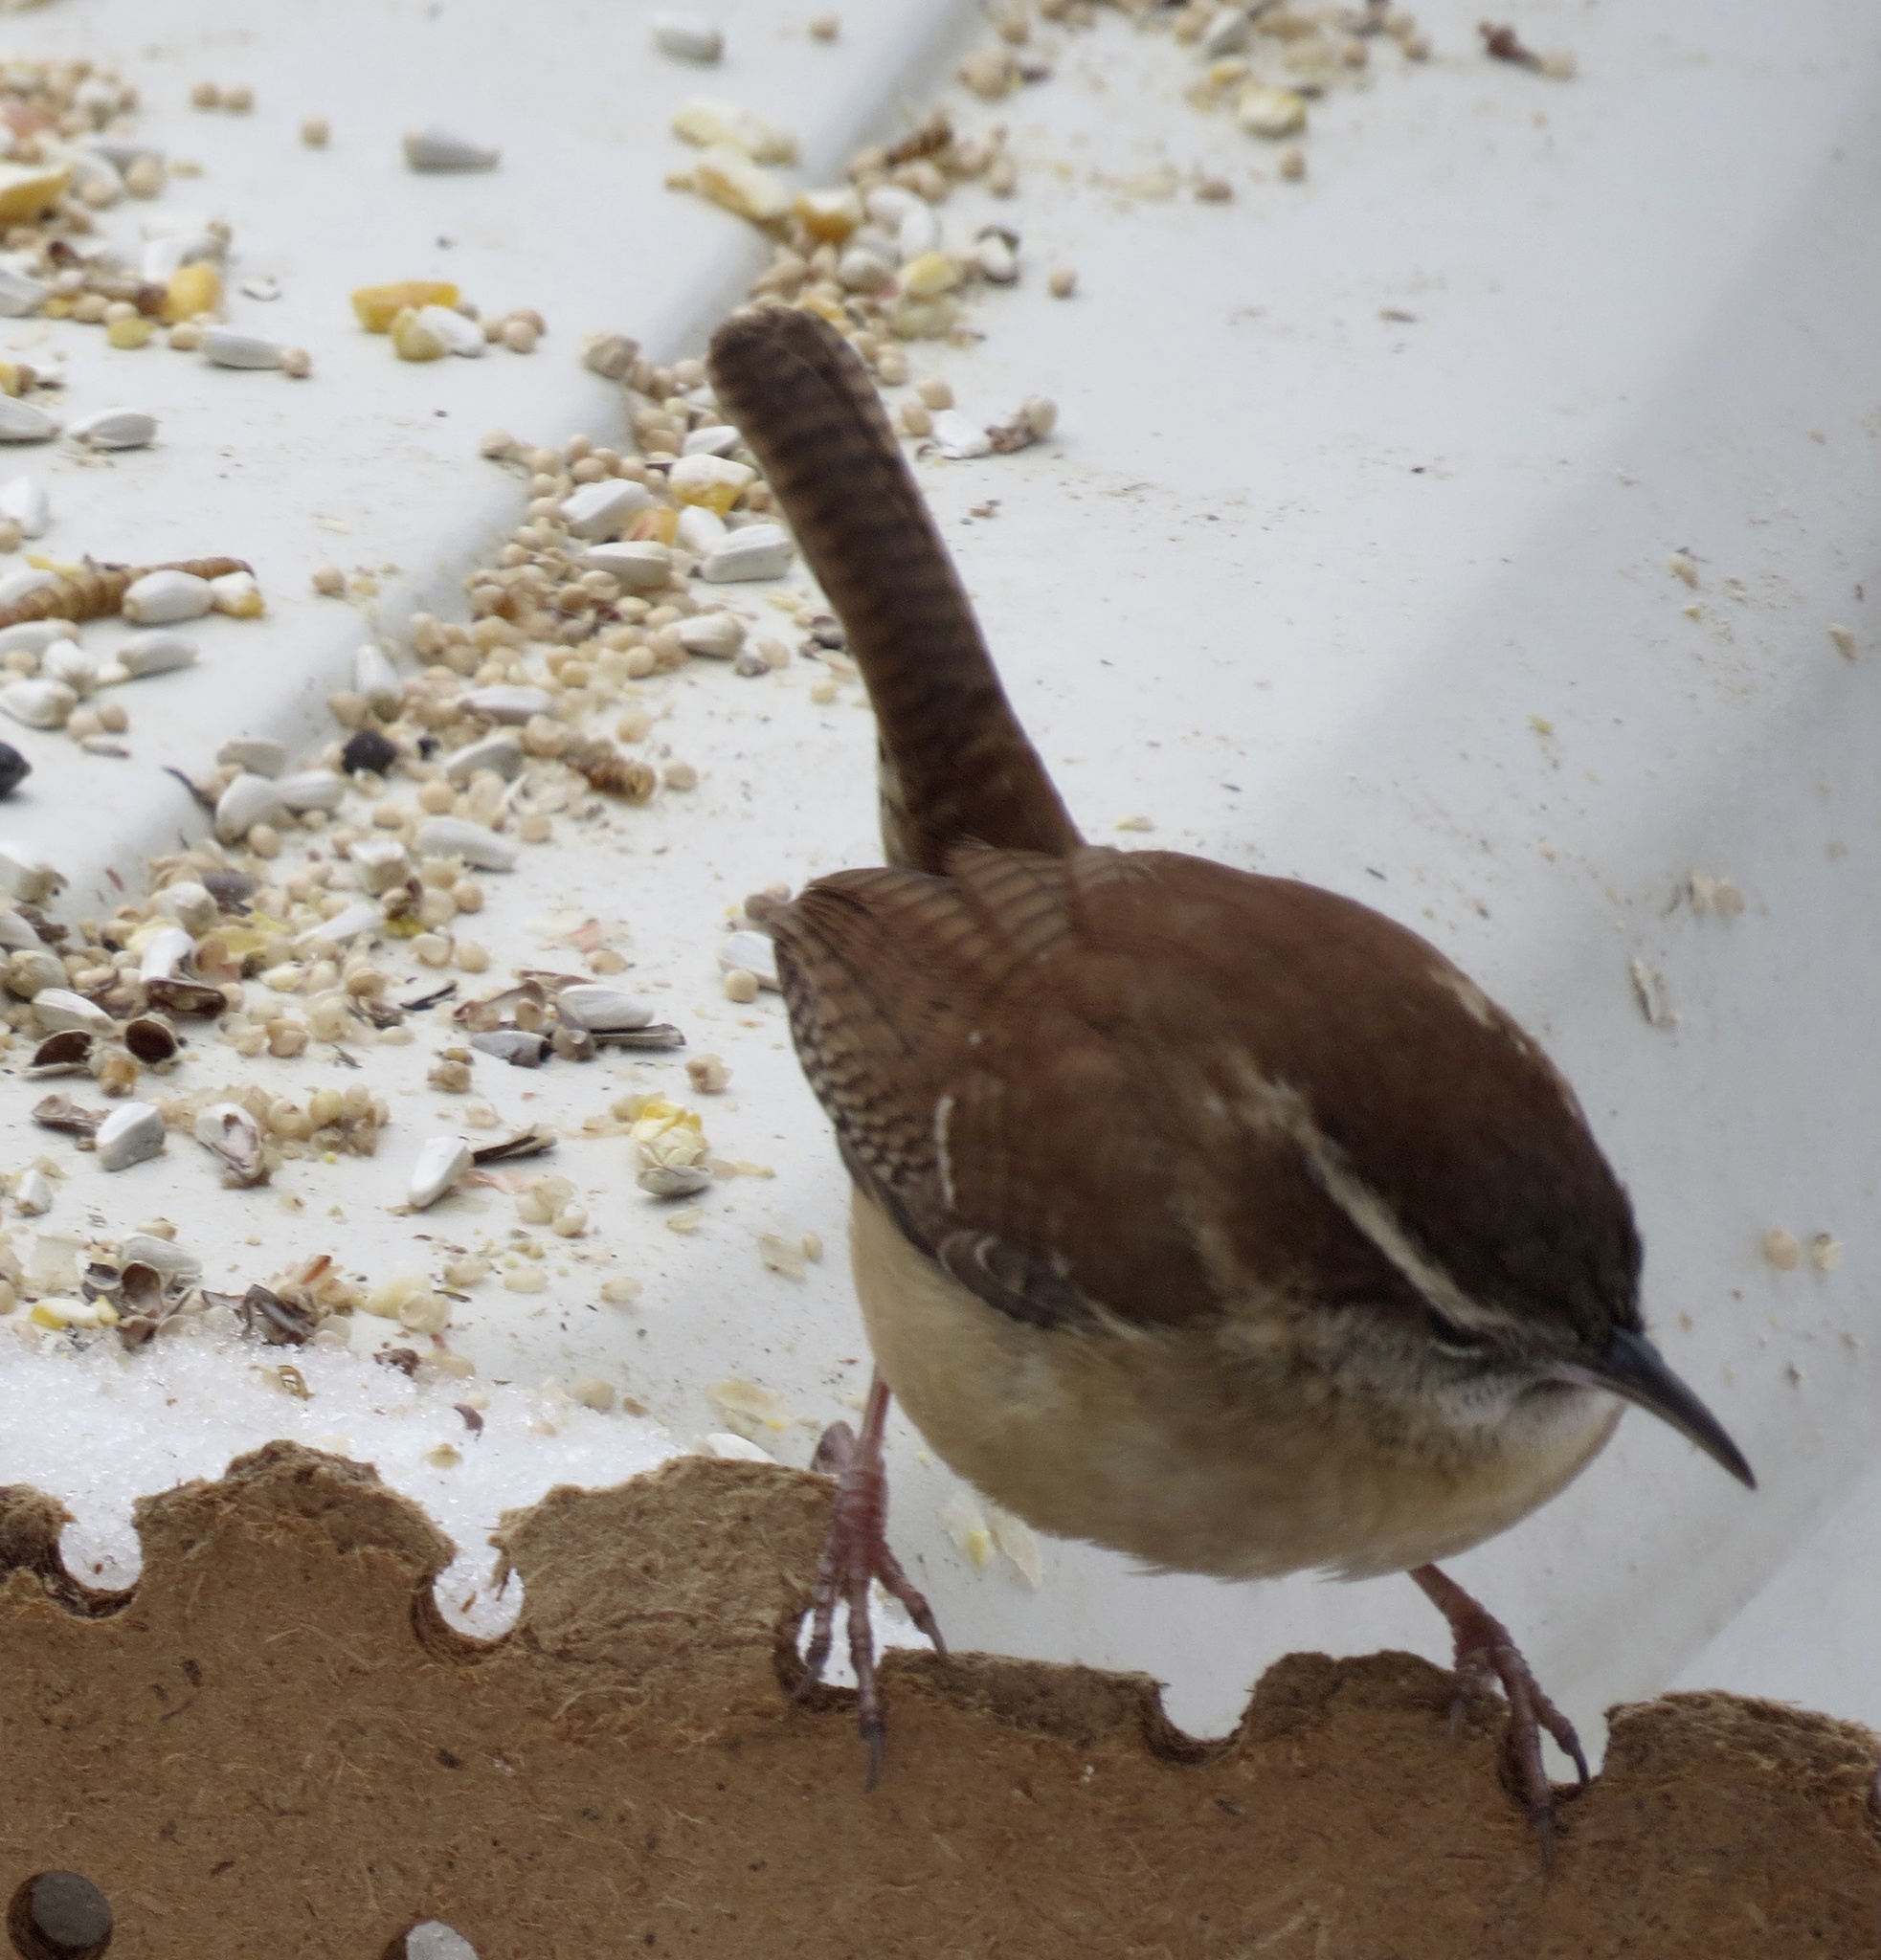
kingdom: Animalia
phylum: Chordata
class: Aves
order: Passeriformes
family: Troglodytidae
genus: Thryothorus
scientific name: Thryothorus ludovicianus
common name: Carolina wren
